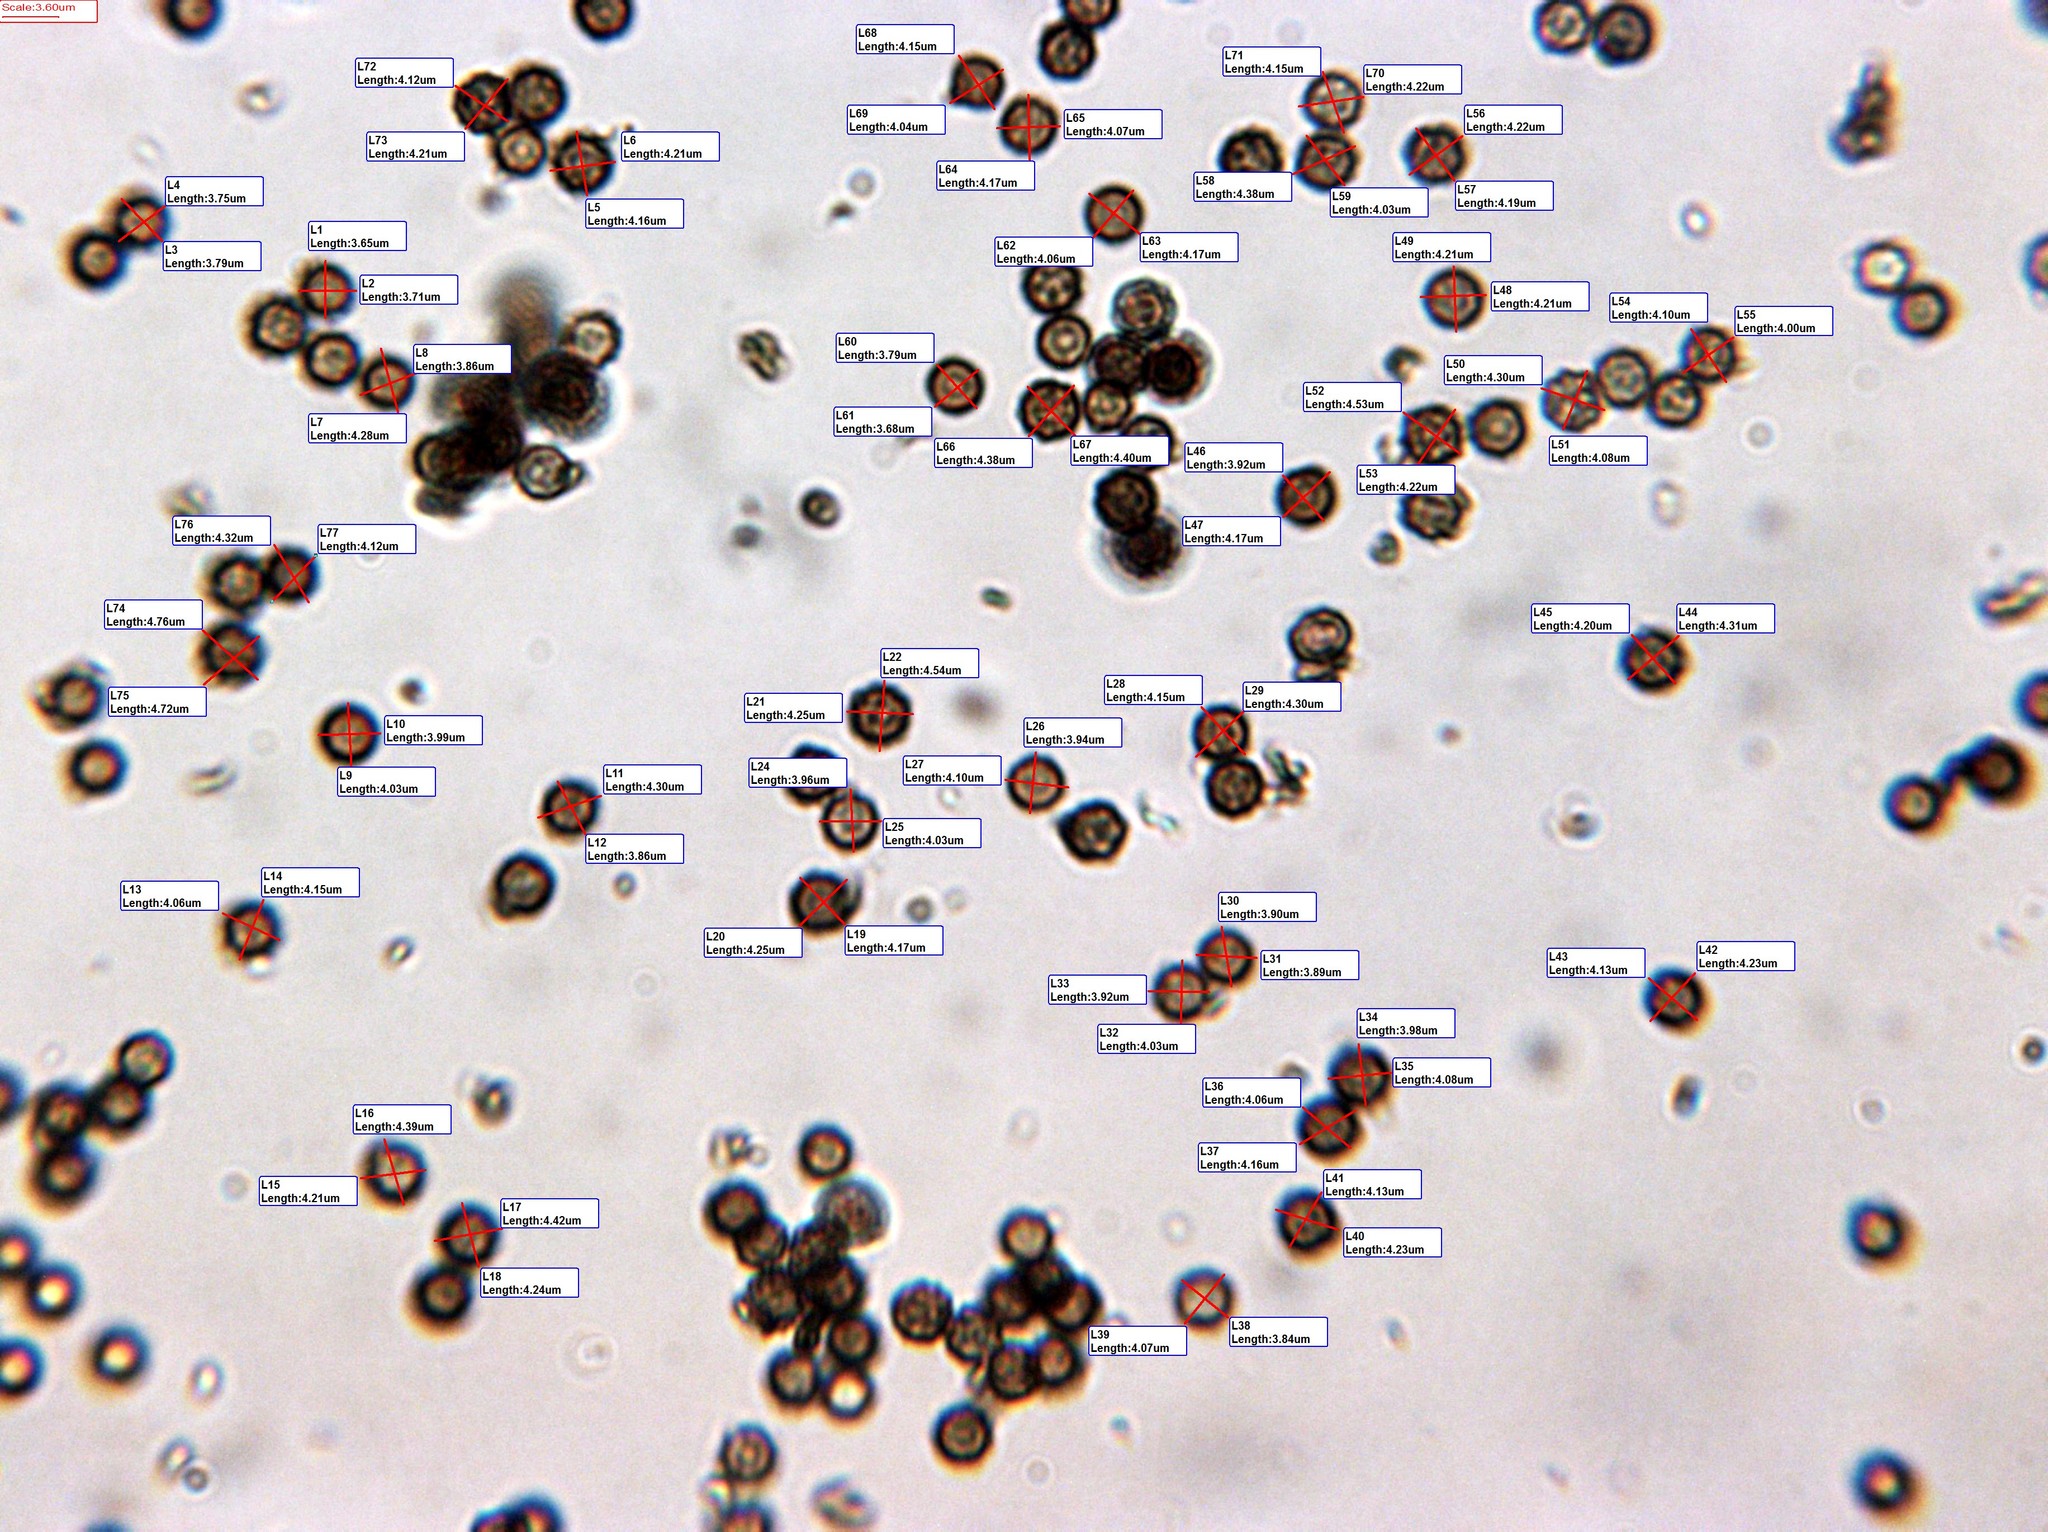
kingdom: Fungi
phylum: Basidiomycota
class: Agaricomycetes
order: Geastrales
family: Geastraceae
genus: Schenella
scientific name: Schenella microspora
